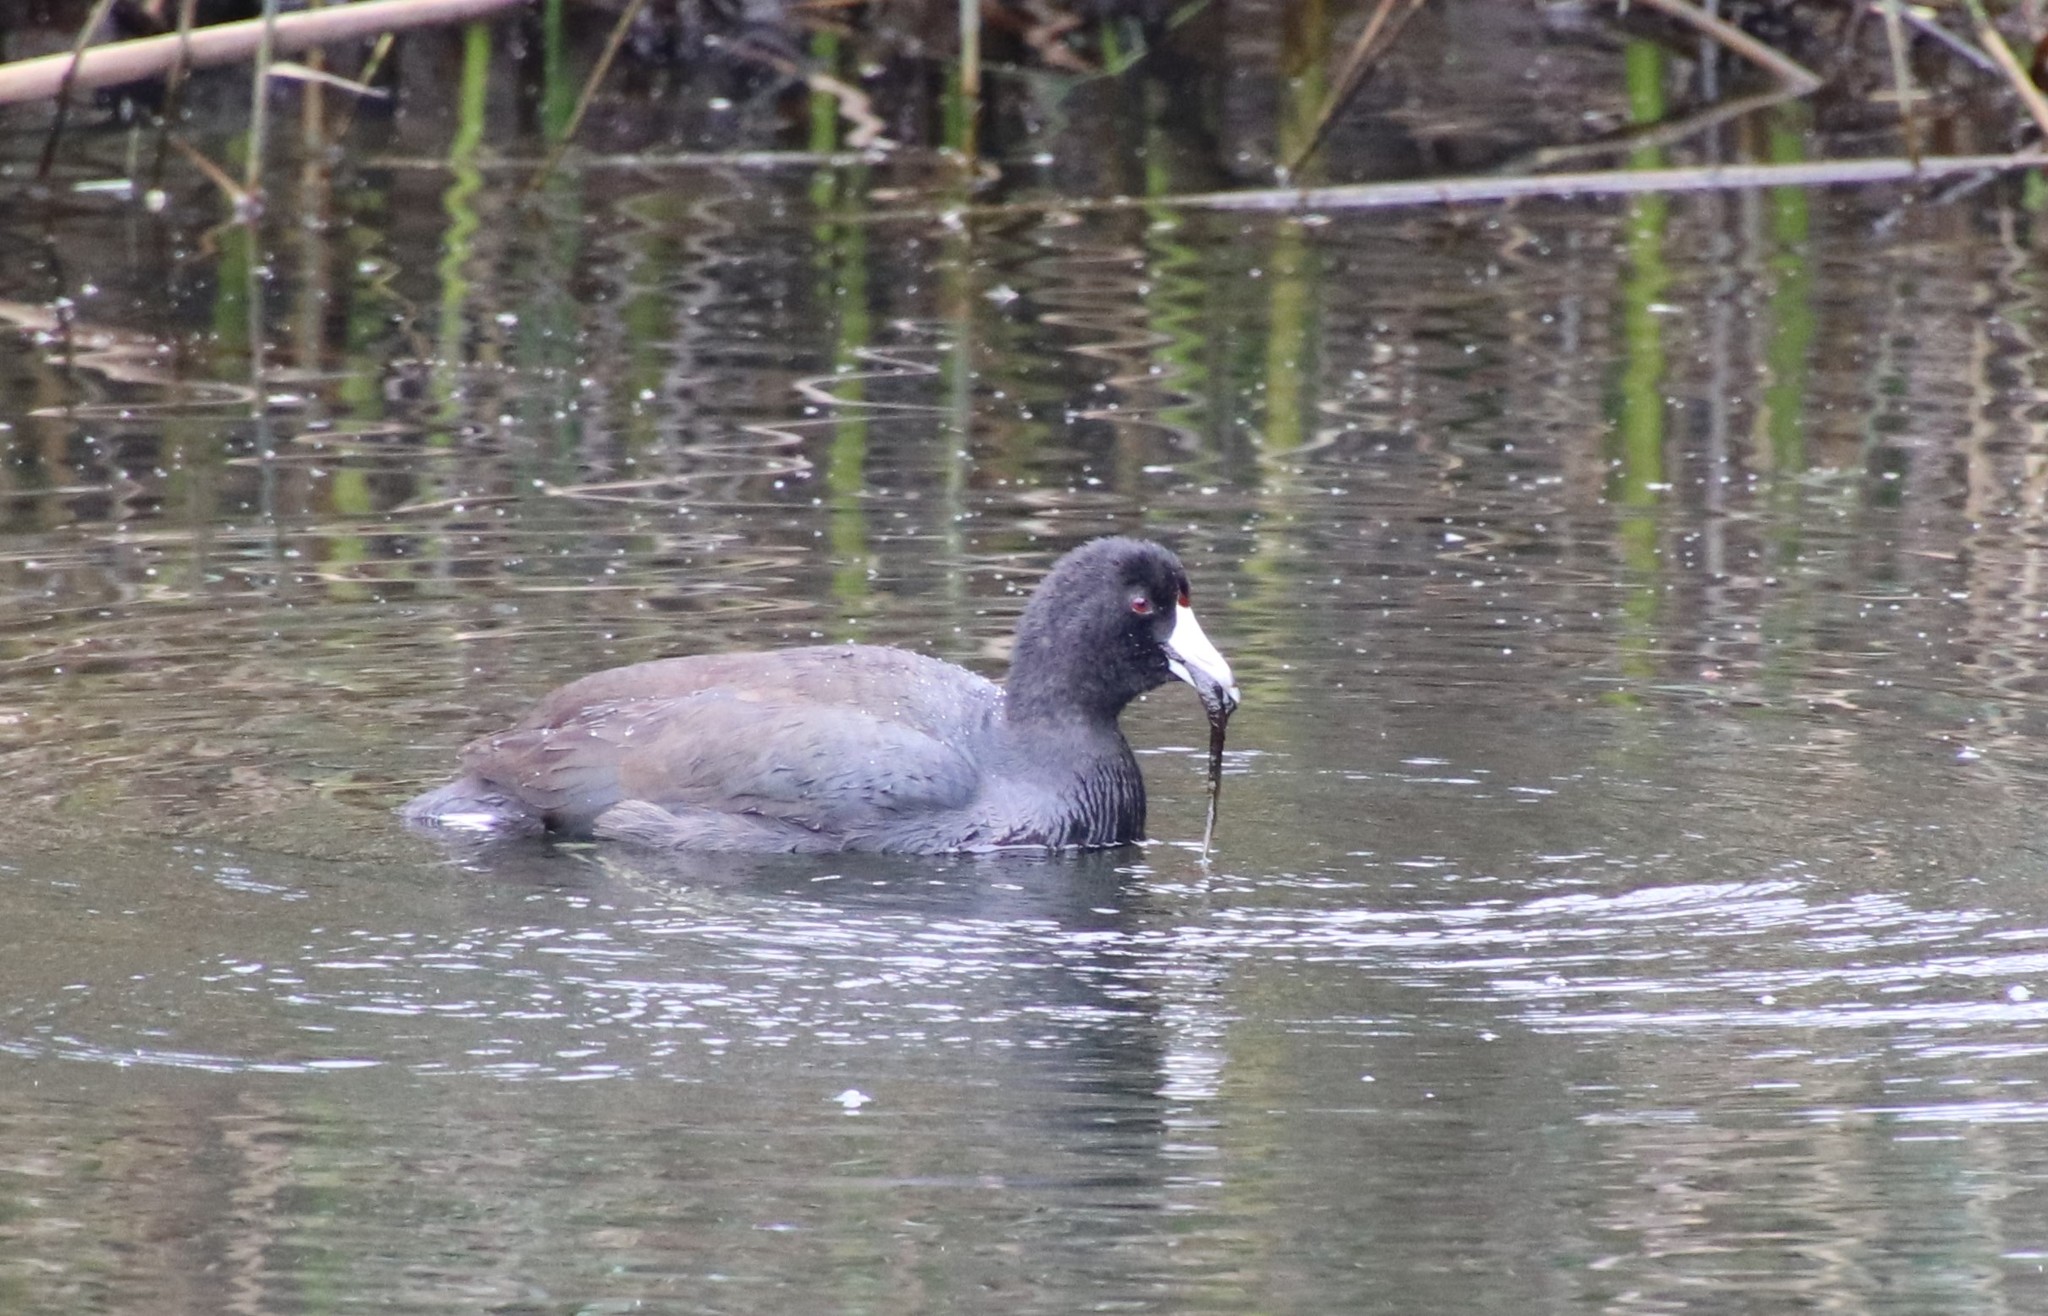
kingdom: Animalia
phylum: Chordata
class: Aves
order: Gruiformes
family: Rallidae
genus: Fulica
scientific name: Fulica americana
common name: American coot
